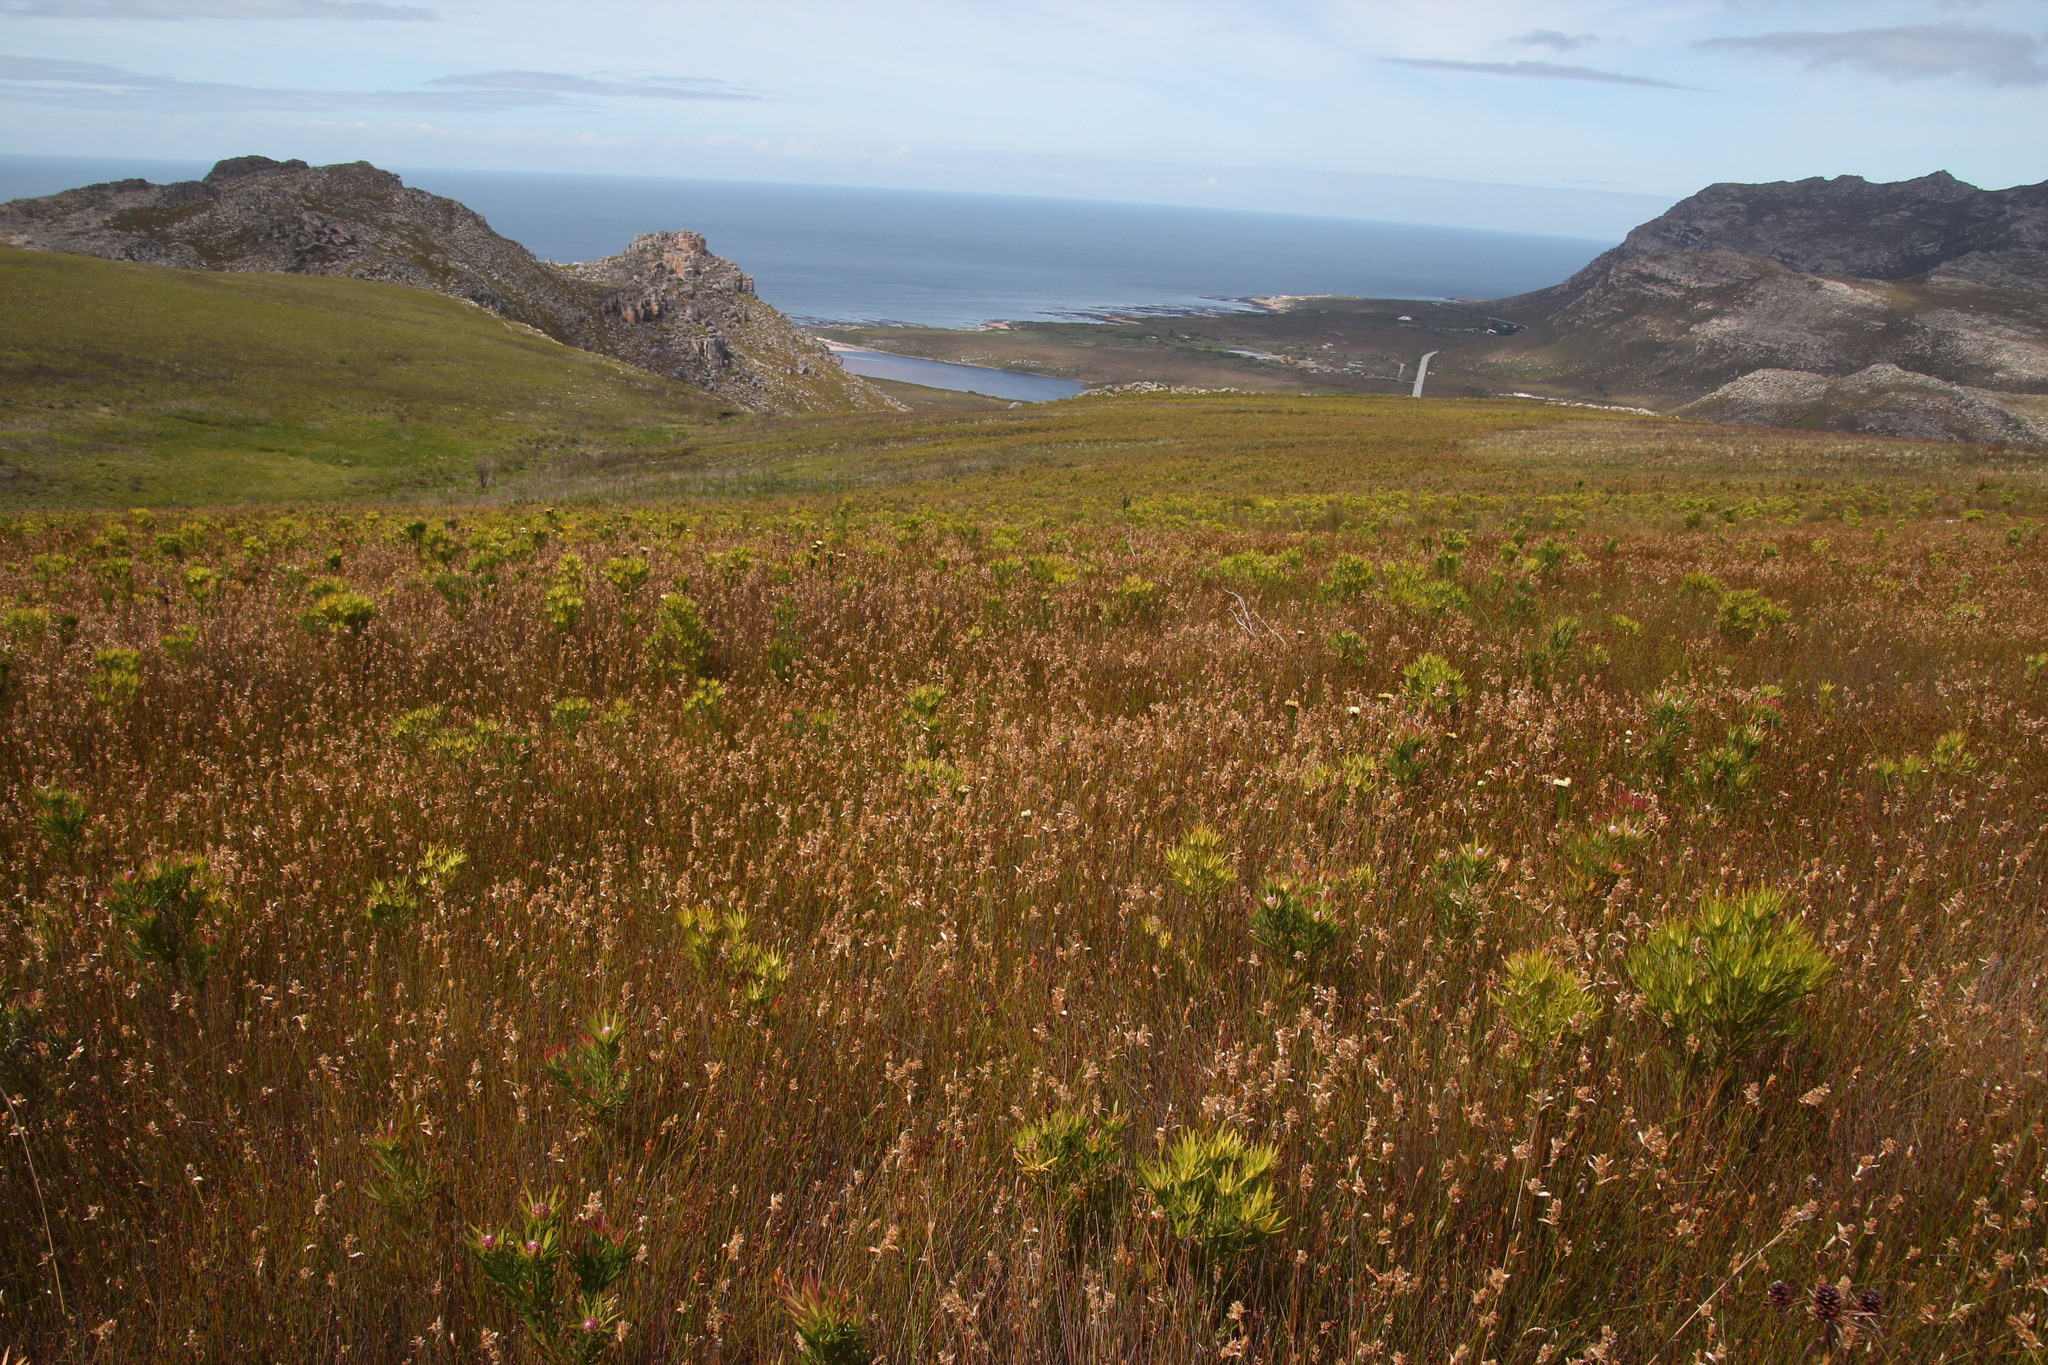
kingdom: Plantae
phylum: Tracheophyta
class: Liliopsida
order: Poales
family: Restionaceae
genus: Elegia
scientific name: Elegia asperiflora
